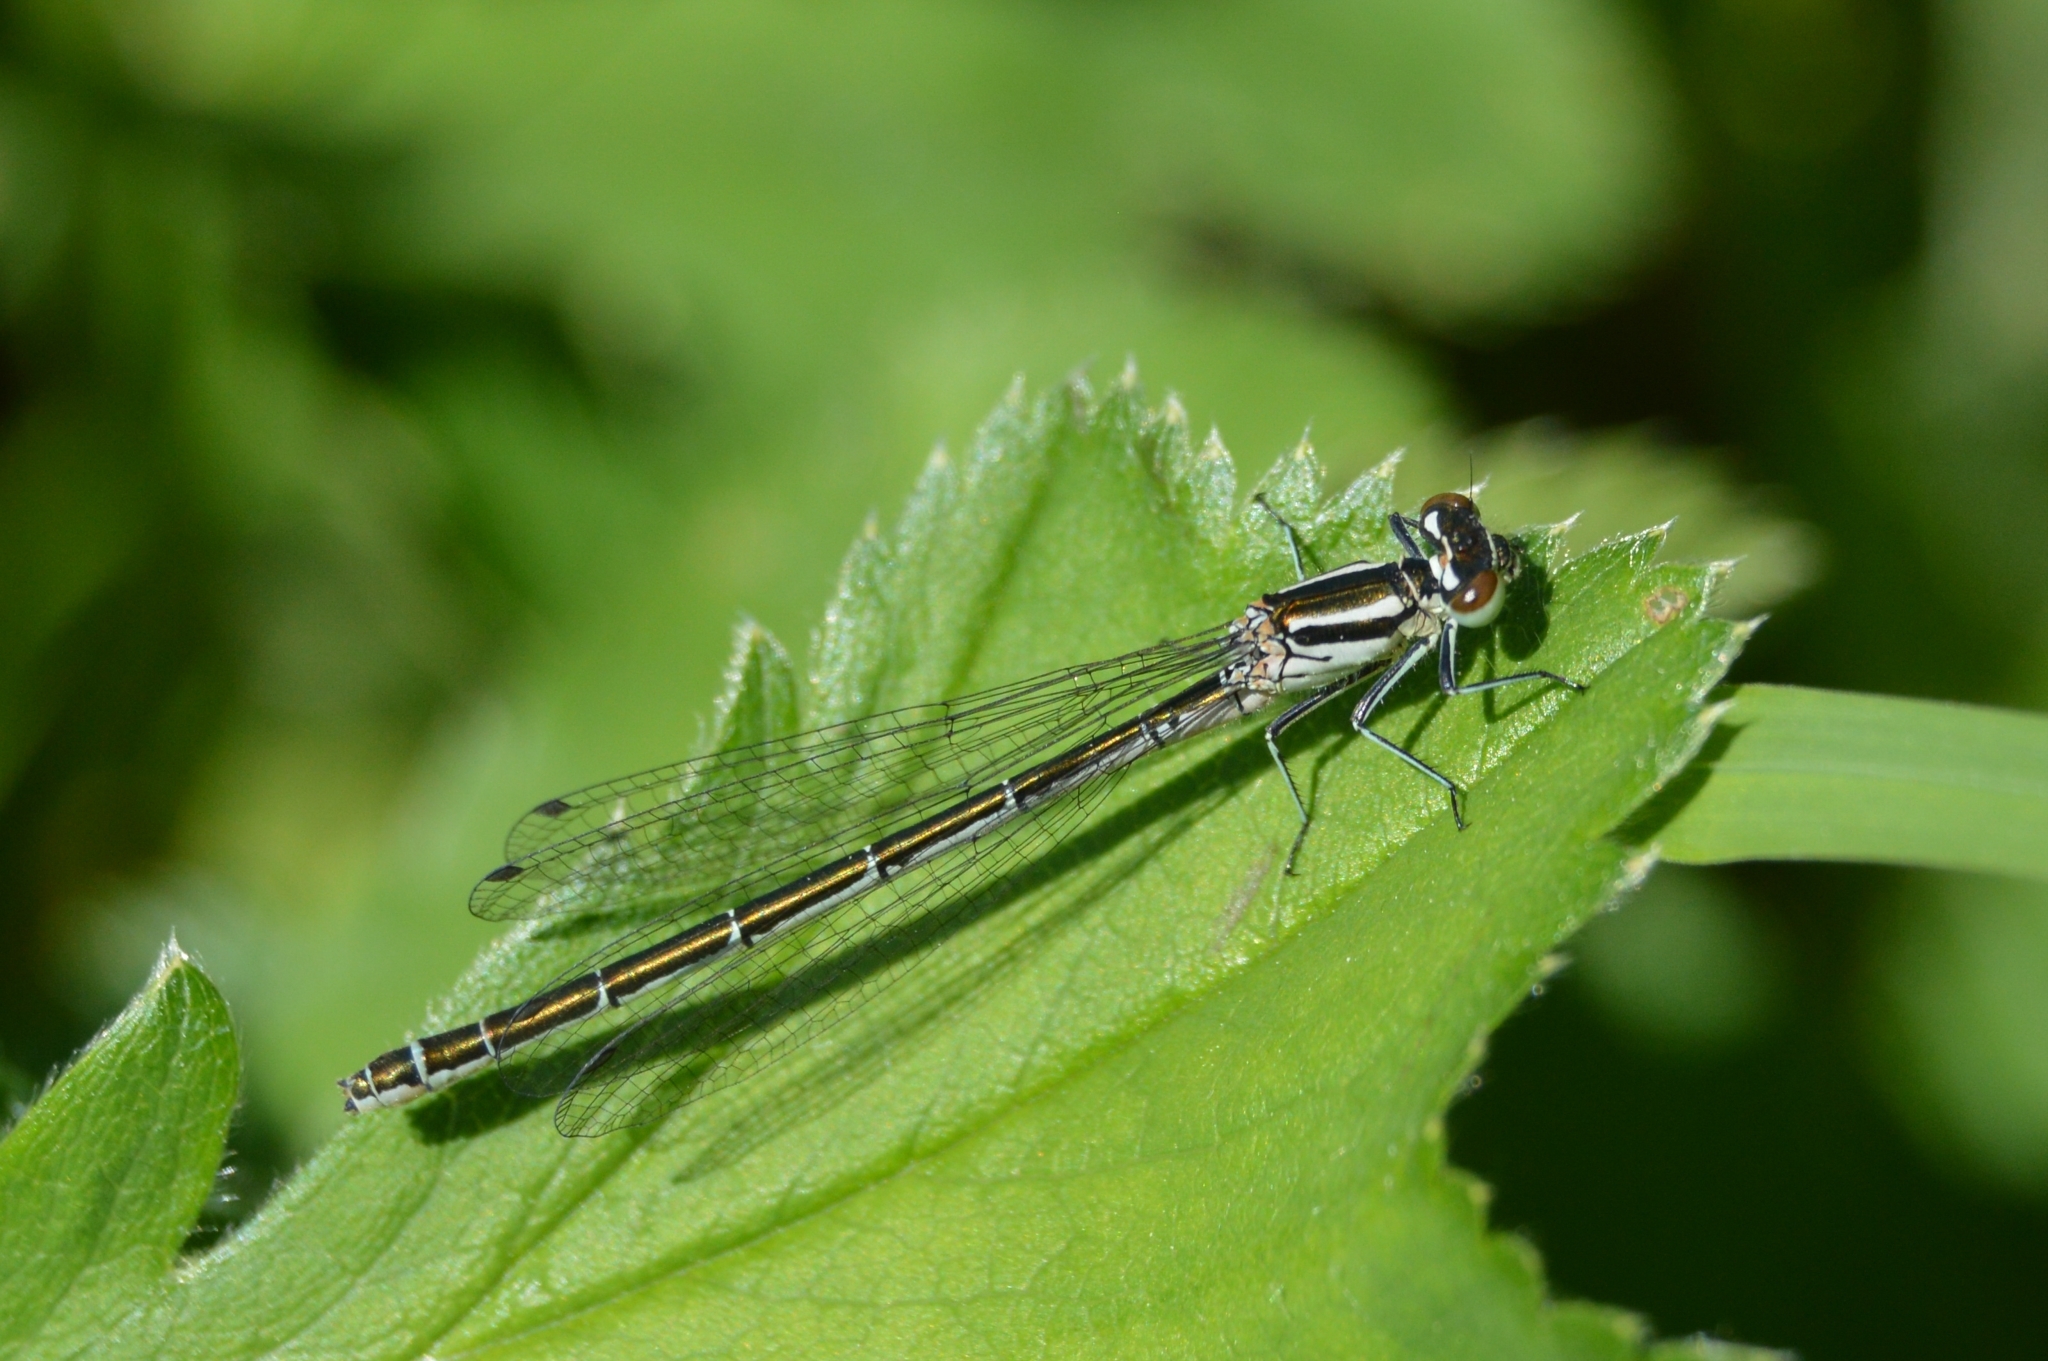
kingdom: Animalia
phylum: Arthropoda
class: Insecta
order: Odonata
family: Coenagrionidae
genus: Coenagrion
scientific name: Coenagrion hastulatum
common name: Spearhead bluet
